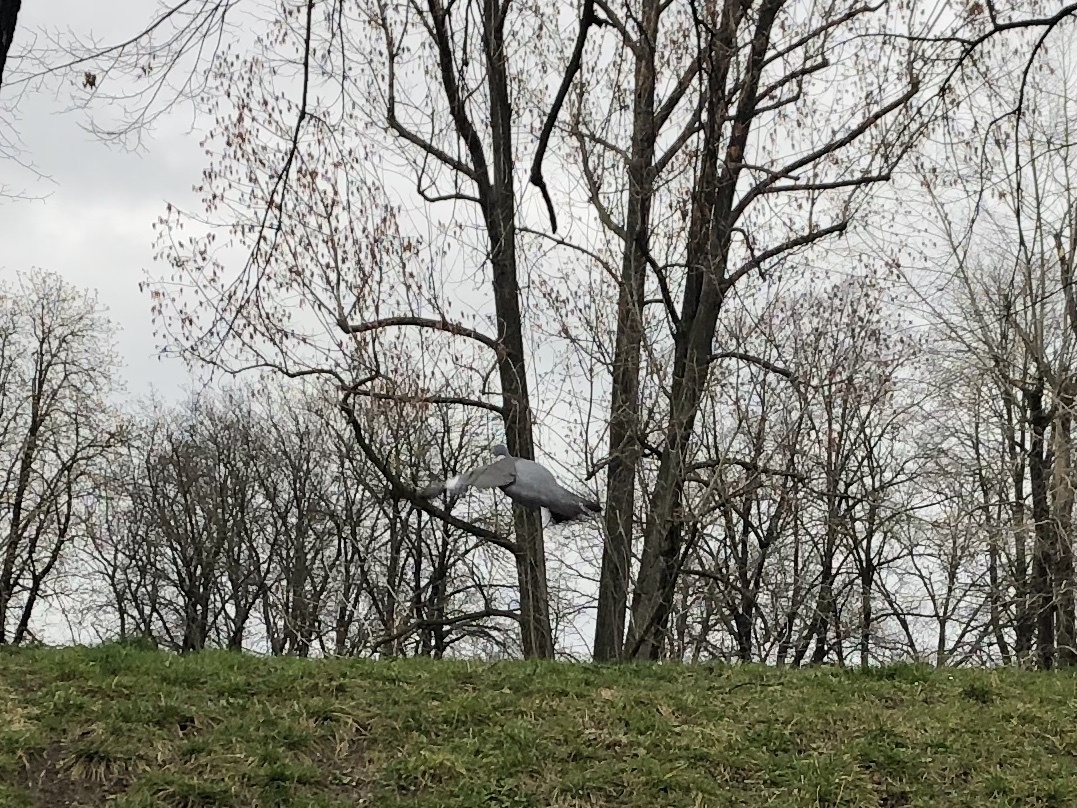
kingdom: Animalia
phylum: Chordata
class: Aves
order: Columbiformes
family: Columbidae
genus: Columba
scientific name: Columba palumbus
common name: Common wood pigeon
